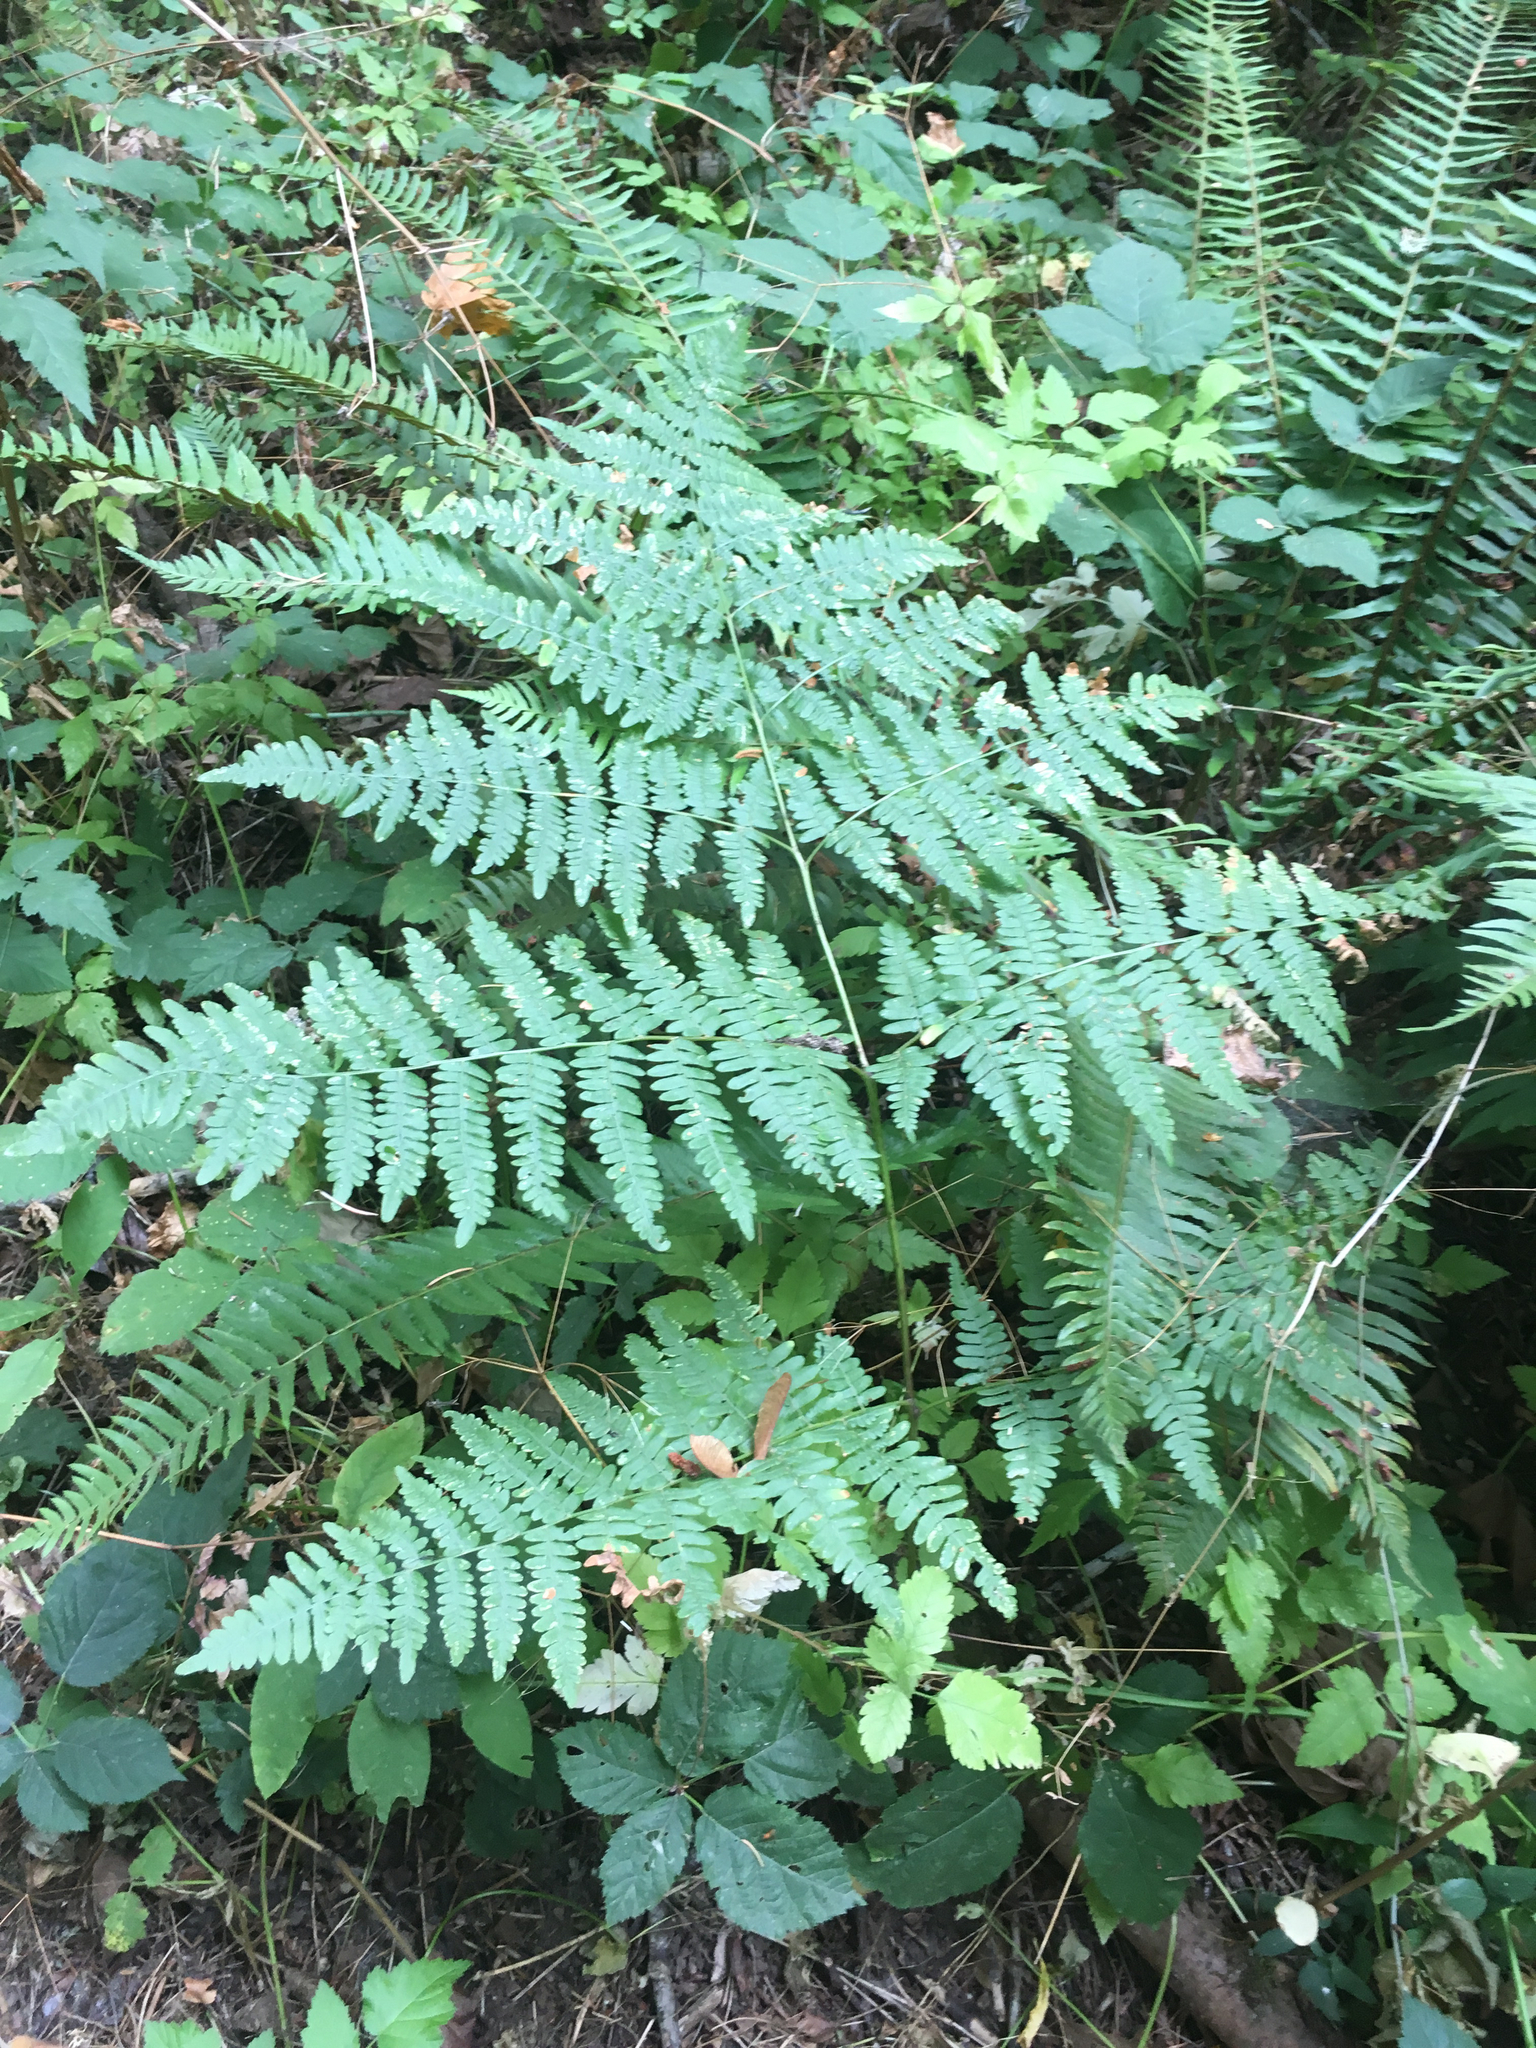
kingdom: Plantae
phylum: Tracheophyta
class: Polypodiopsida
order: Polypodiales
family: Dennstaedtiaceae
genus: Pteridium
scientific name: Pteridium aquilinum
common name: Bracken
